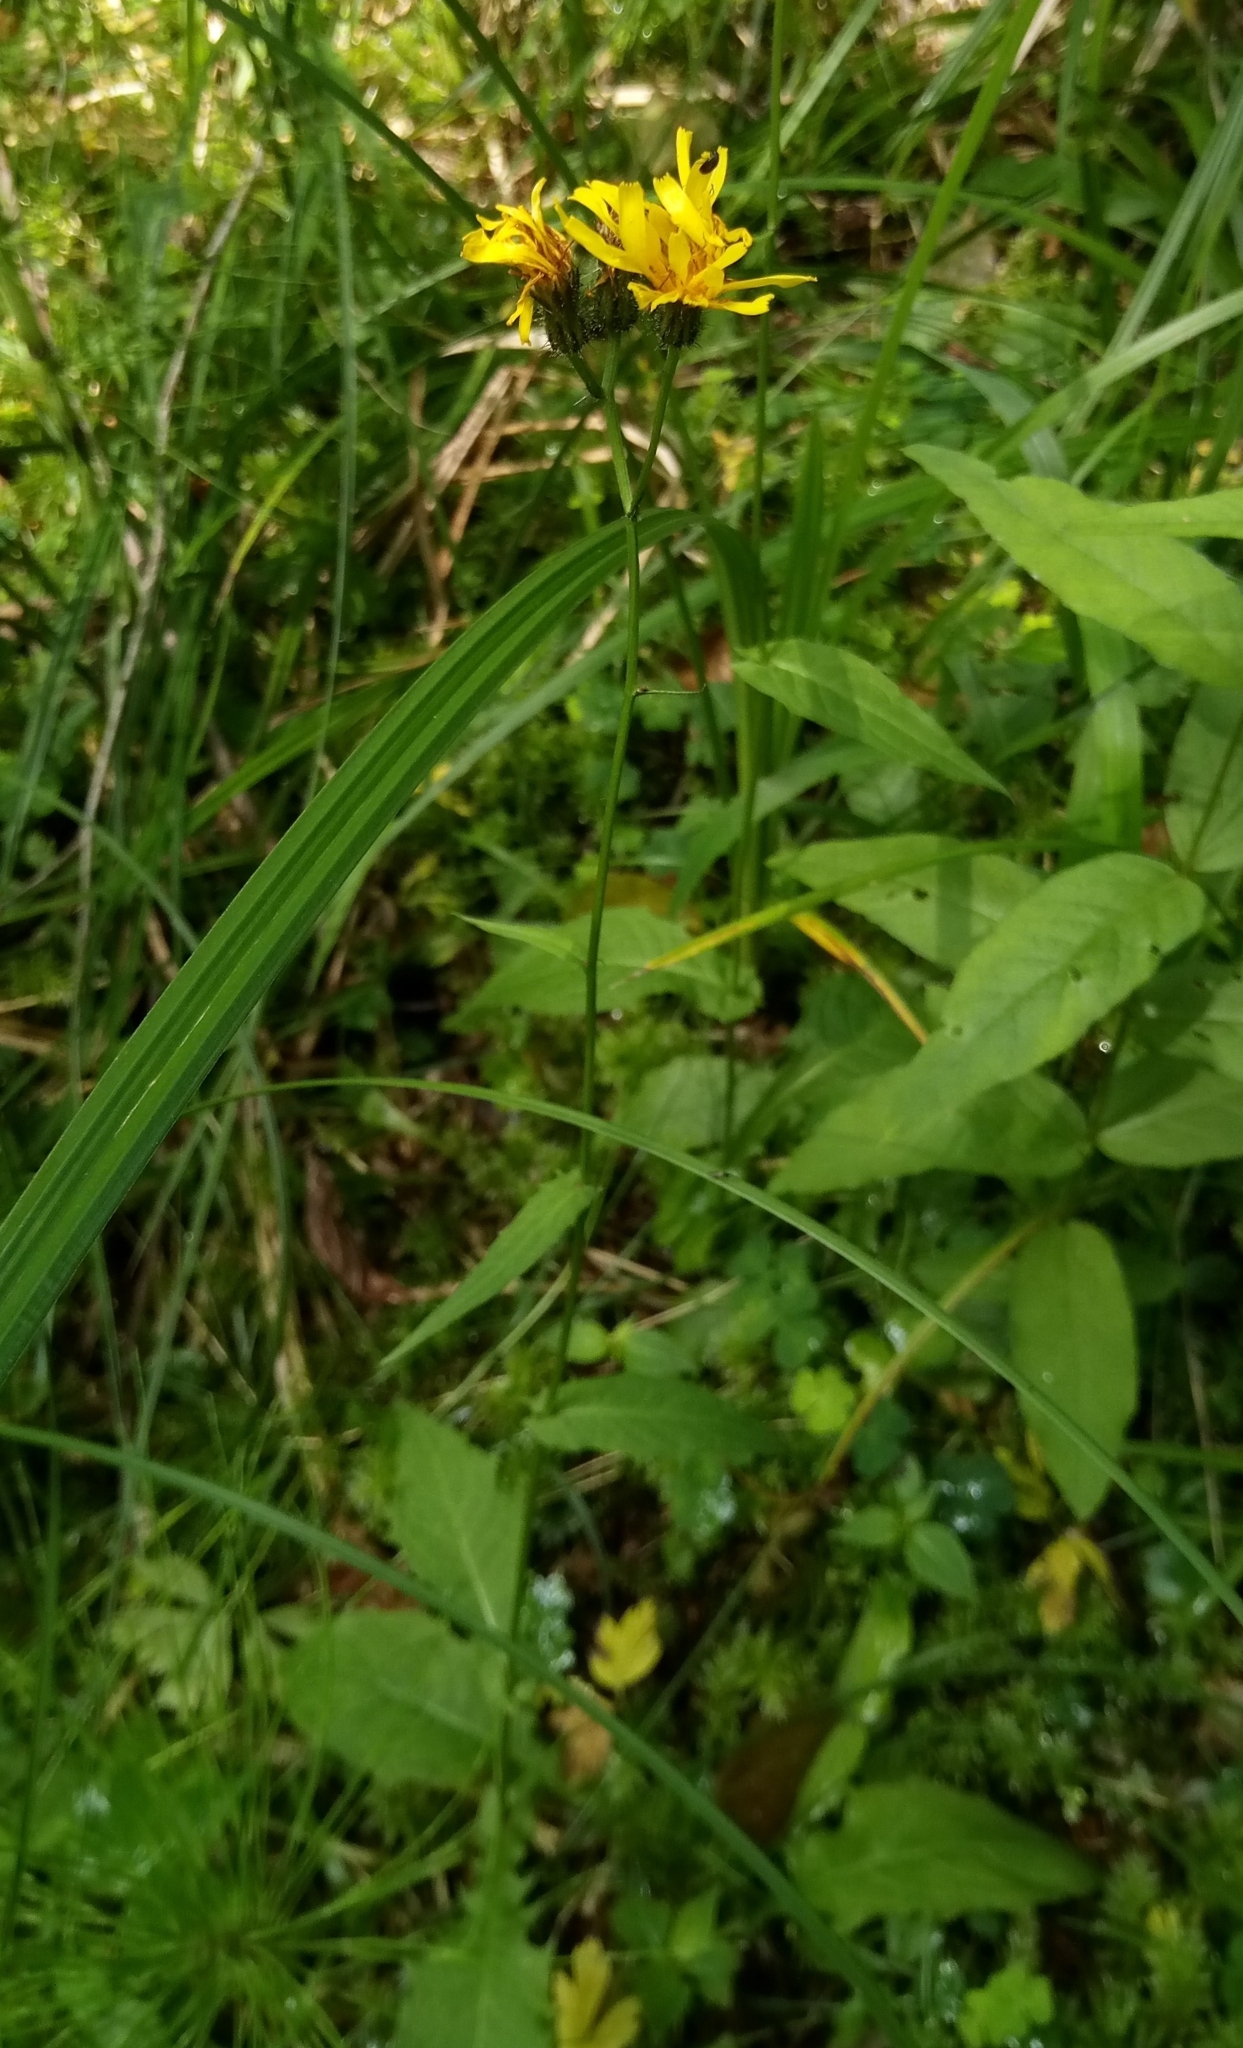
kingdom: Plantae
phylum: Tracheophyta
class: Magnoliopsida
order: Asterales
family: Asteraceae
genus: Crepis
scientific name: Crepis paludosa
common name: Marsh hawk's-beard
